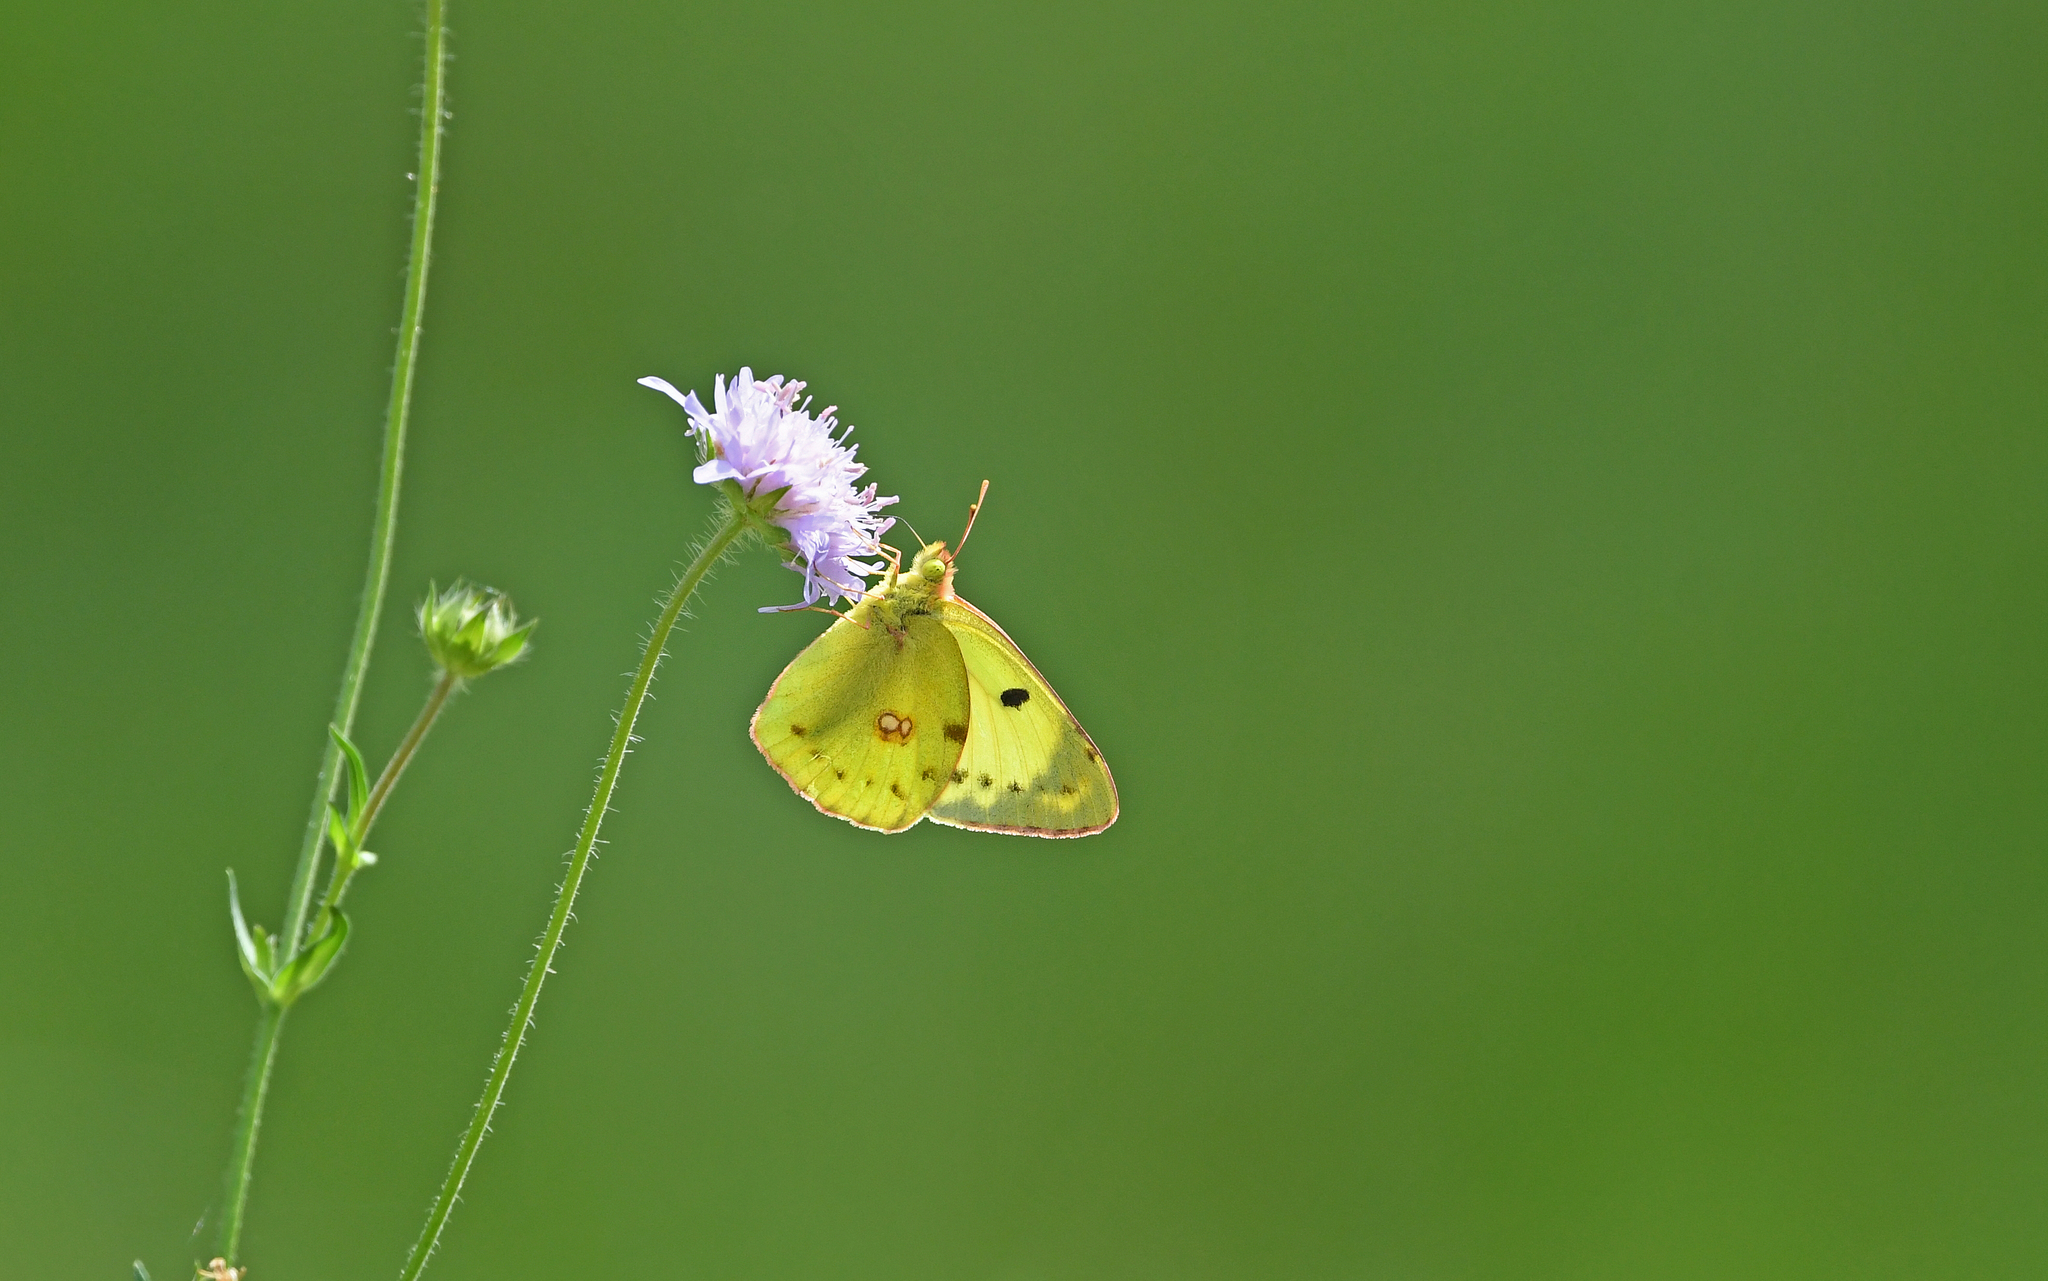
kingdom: Animalia
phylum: Arthropoda
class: Insecta
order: Lepidoptera
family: Pieridae
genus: Colias
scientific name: Colias alfacariensis
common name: Berger's clouded yellow
